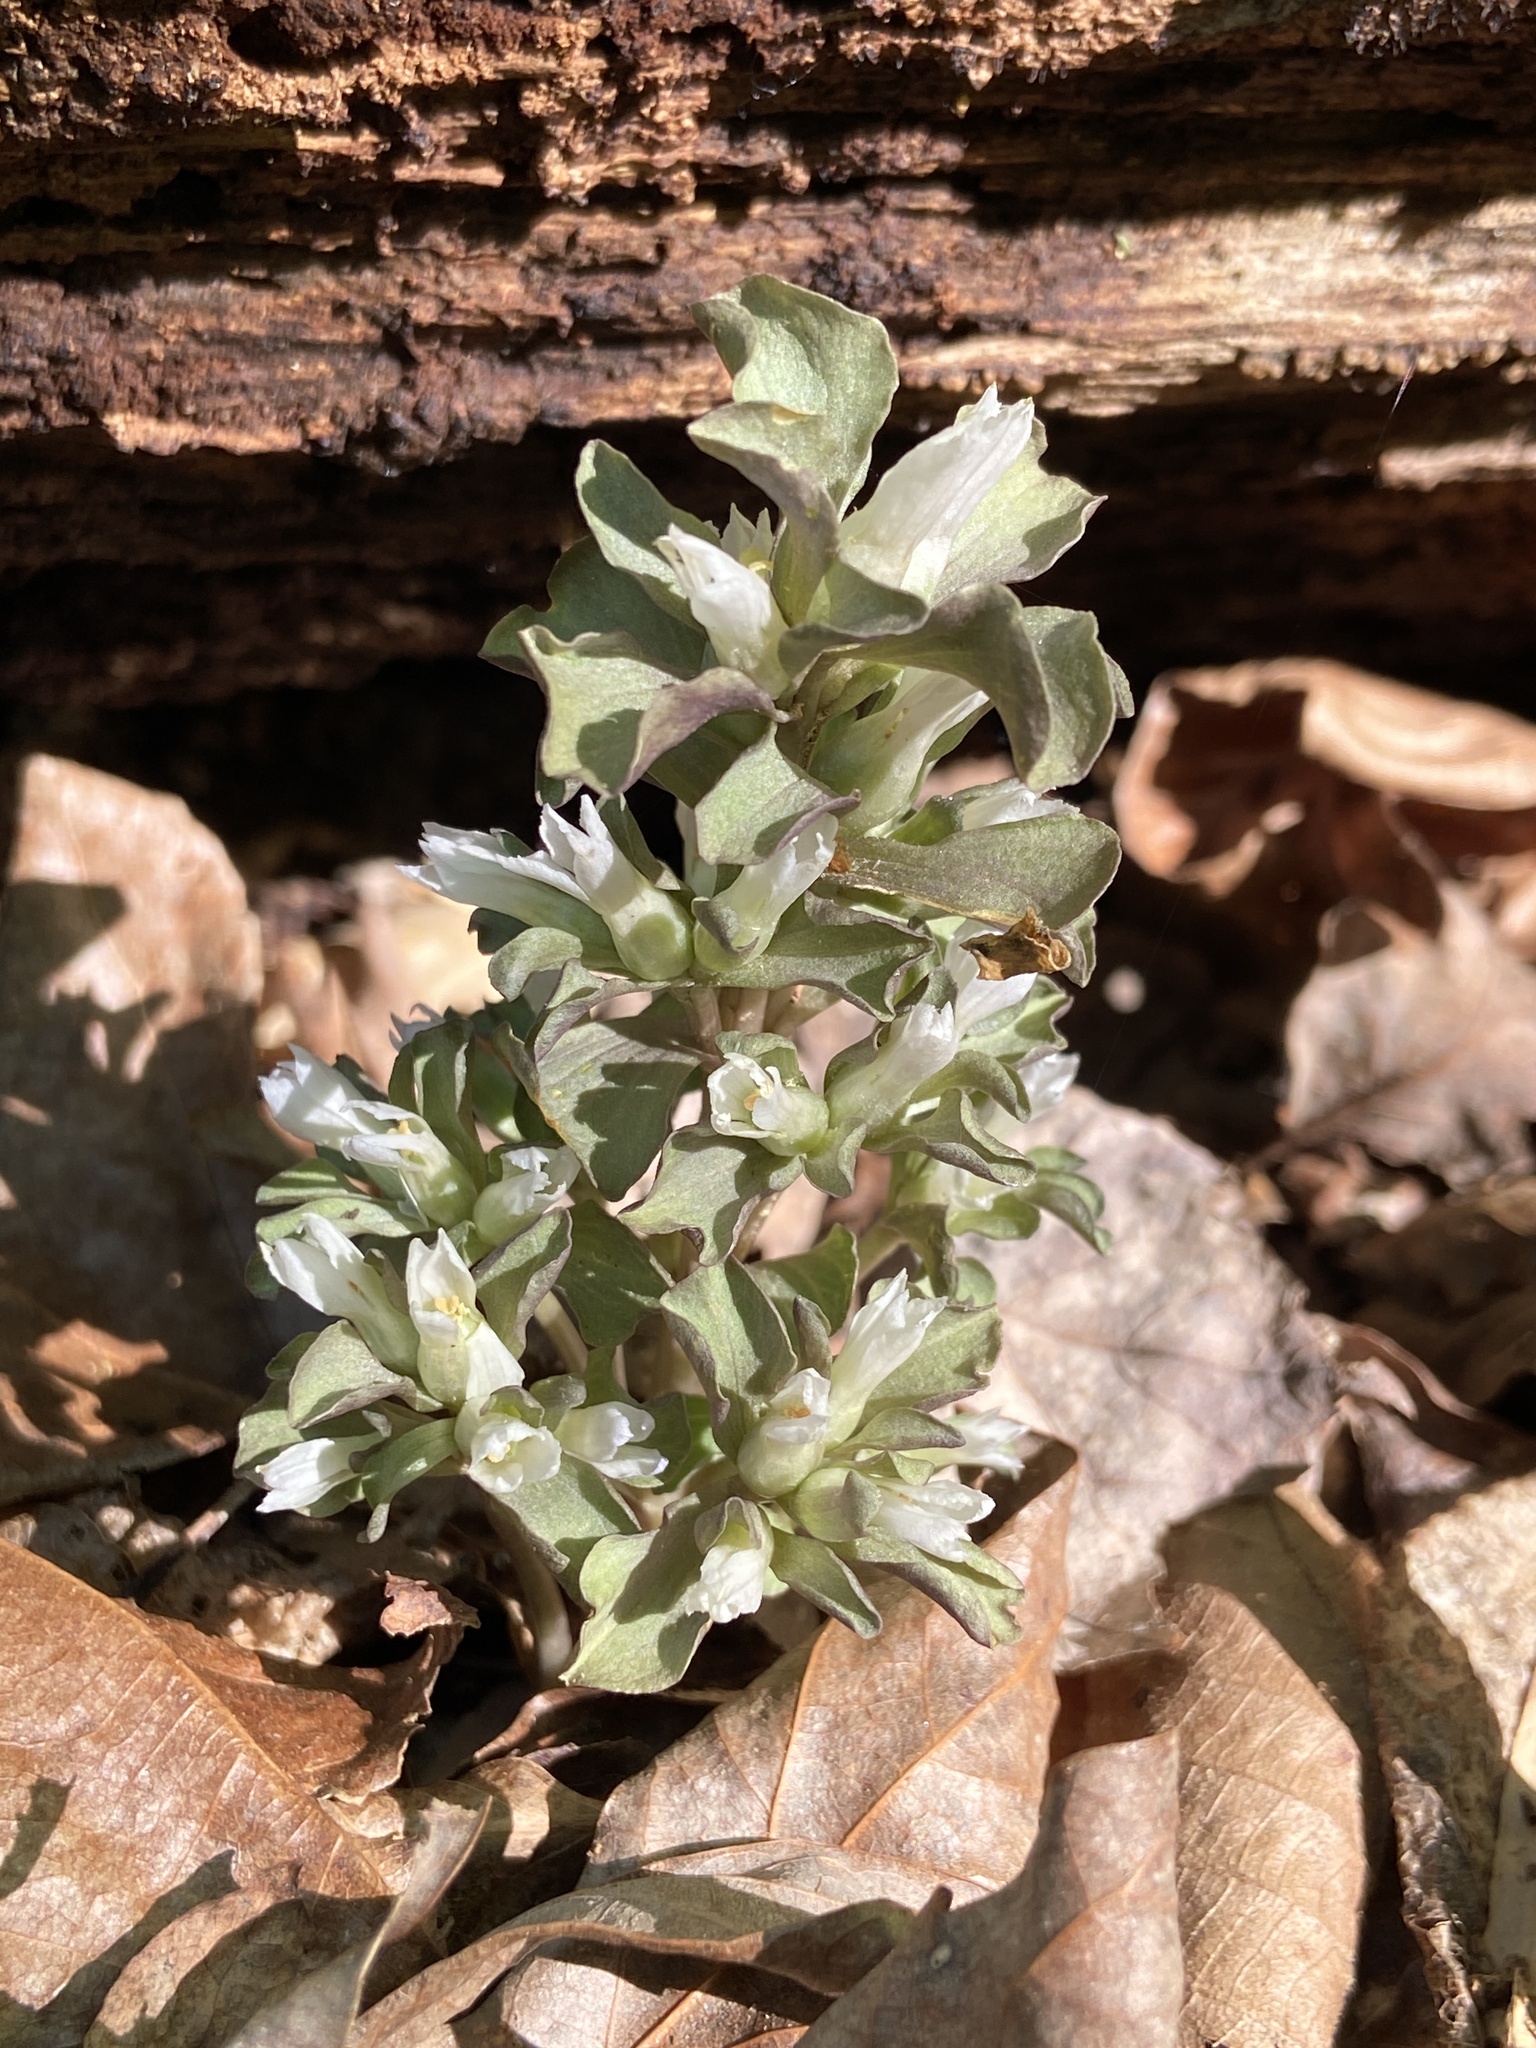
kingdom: Plantae
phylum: Tracheophyta
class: Magnoliopsida
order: Gentianales
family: Gentianaceae
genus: Obolaria
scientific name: Obolaria virginica
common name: Pennywort
